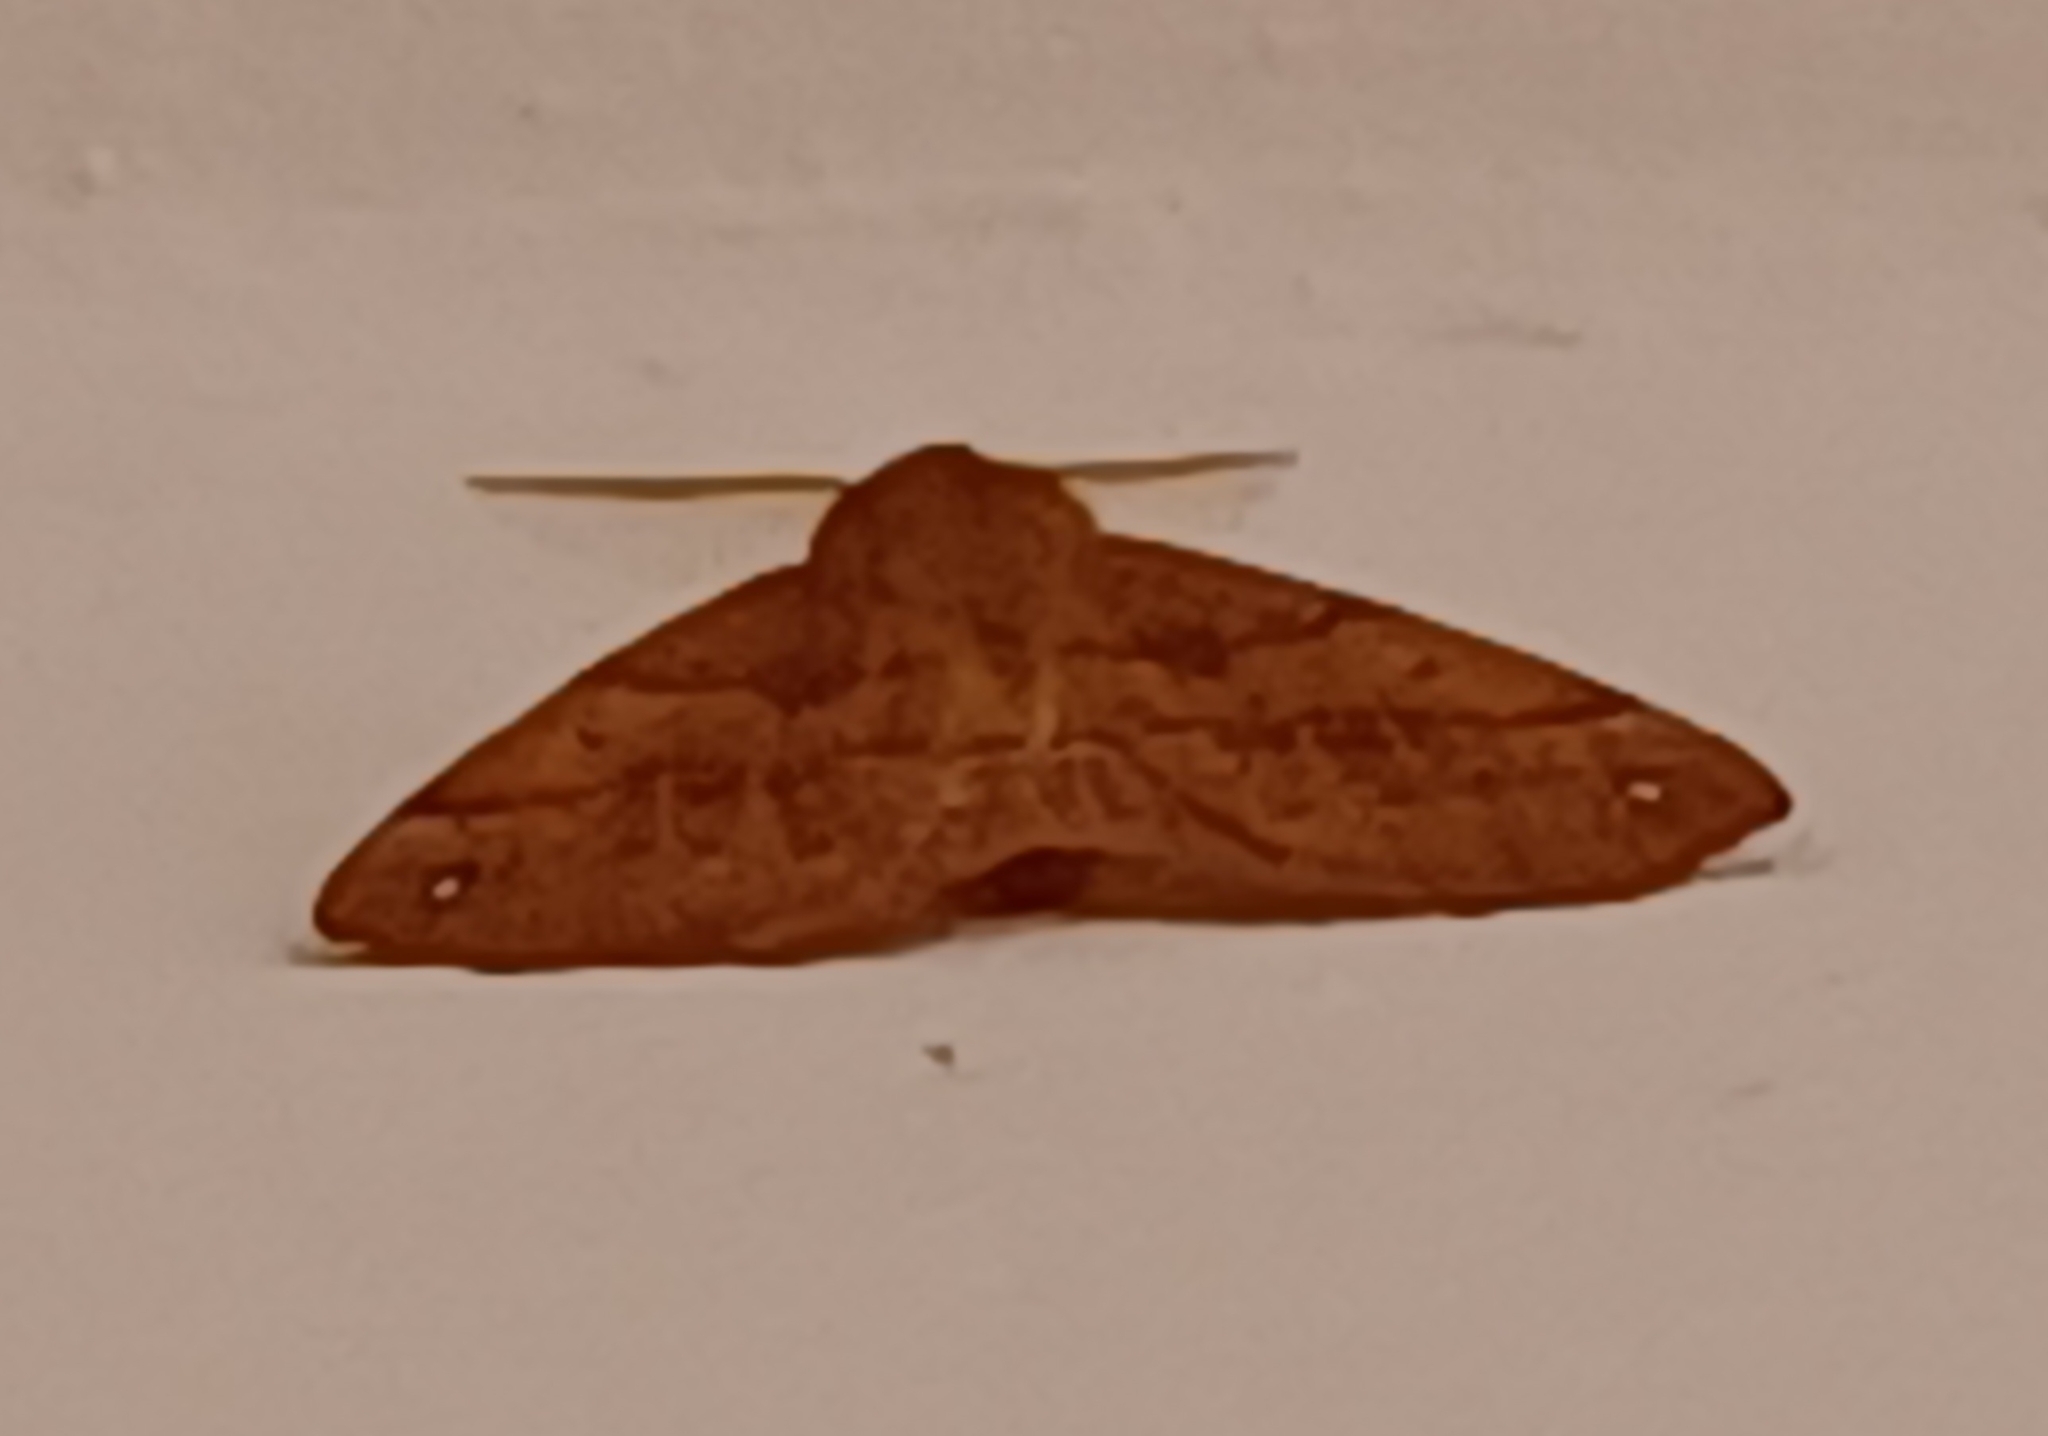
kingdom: Animalia
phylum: Arthropoda
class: Insecta
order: Lepidoptera
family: Geometridae
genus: Colotois
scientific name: Colotois pennaria
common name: Feathered thorn
